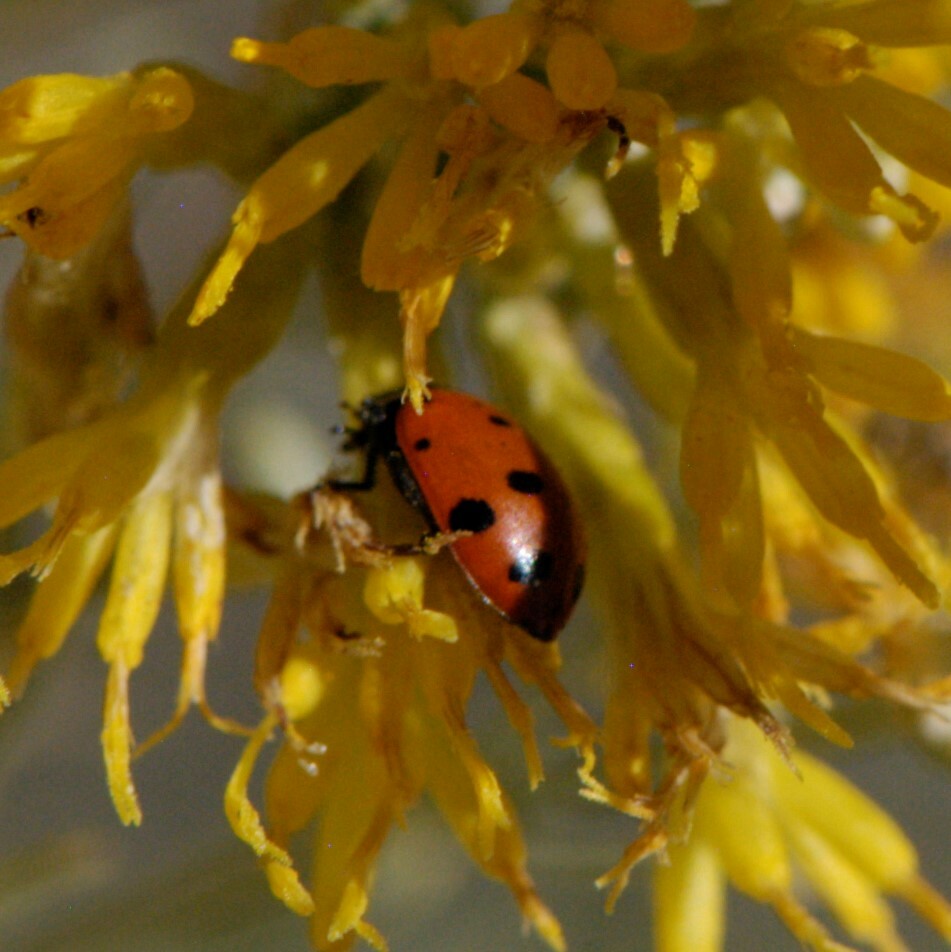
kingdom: Animalia
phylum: Arthropoda
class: Insecta
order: Coleoptera
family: Coccinellidae
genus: Hippodamia
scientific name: Hippodamia convergens
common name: Convergent lady beetle
